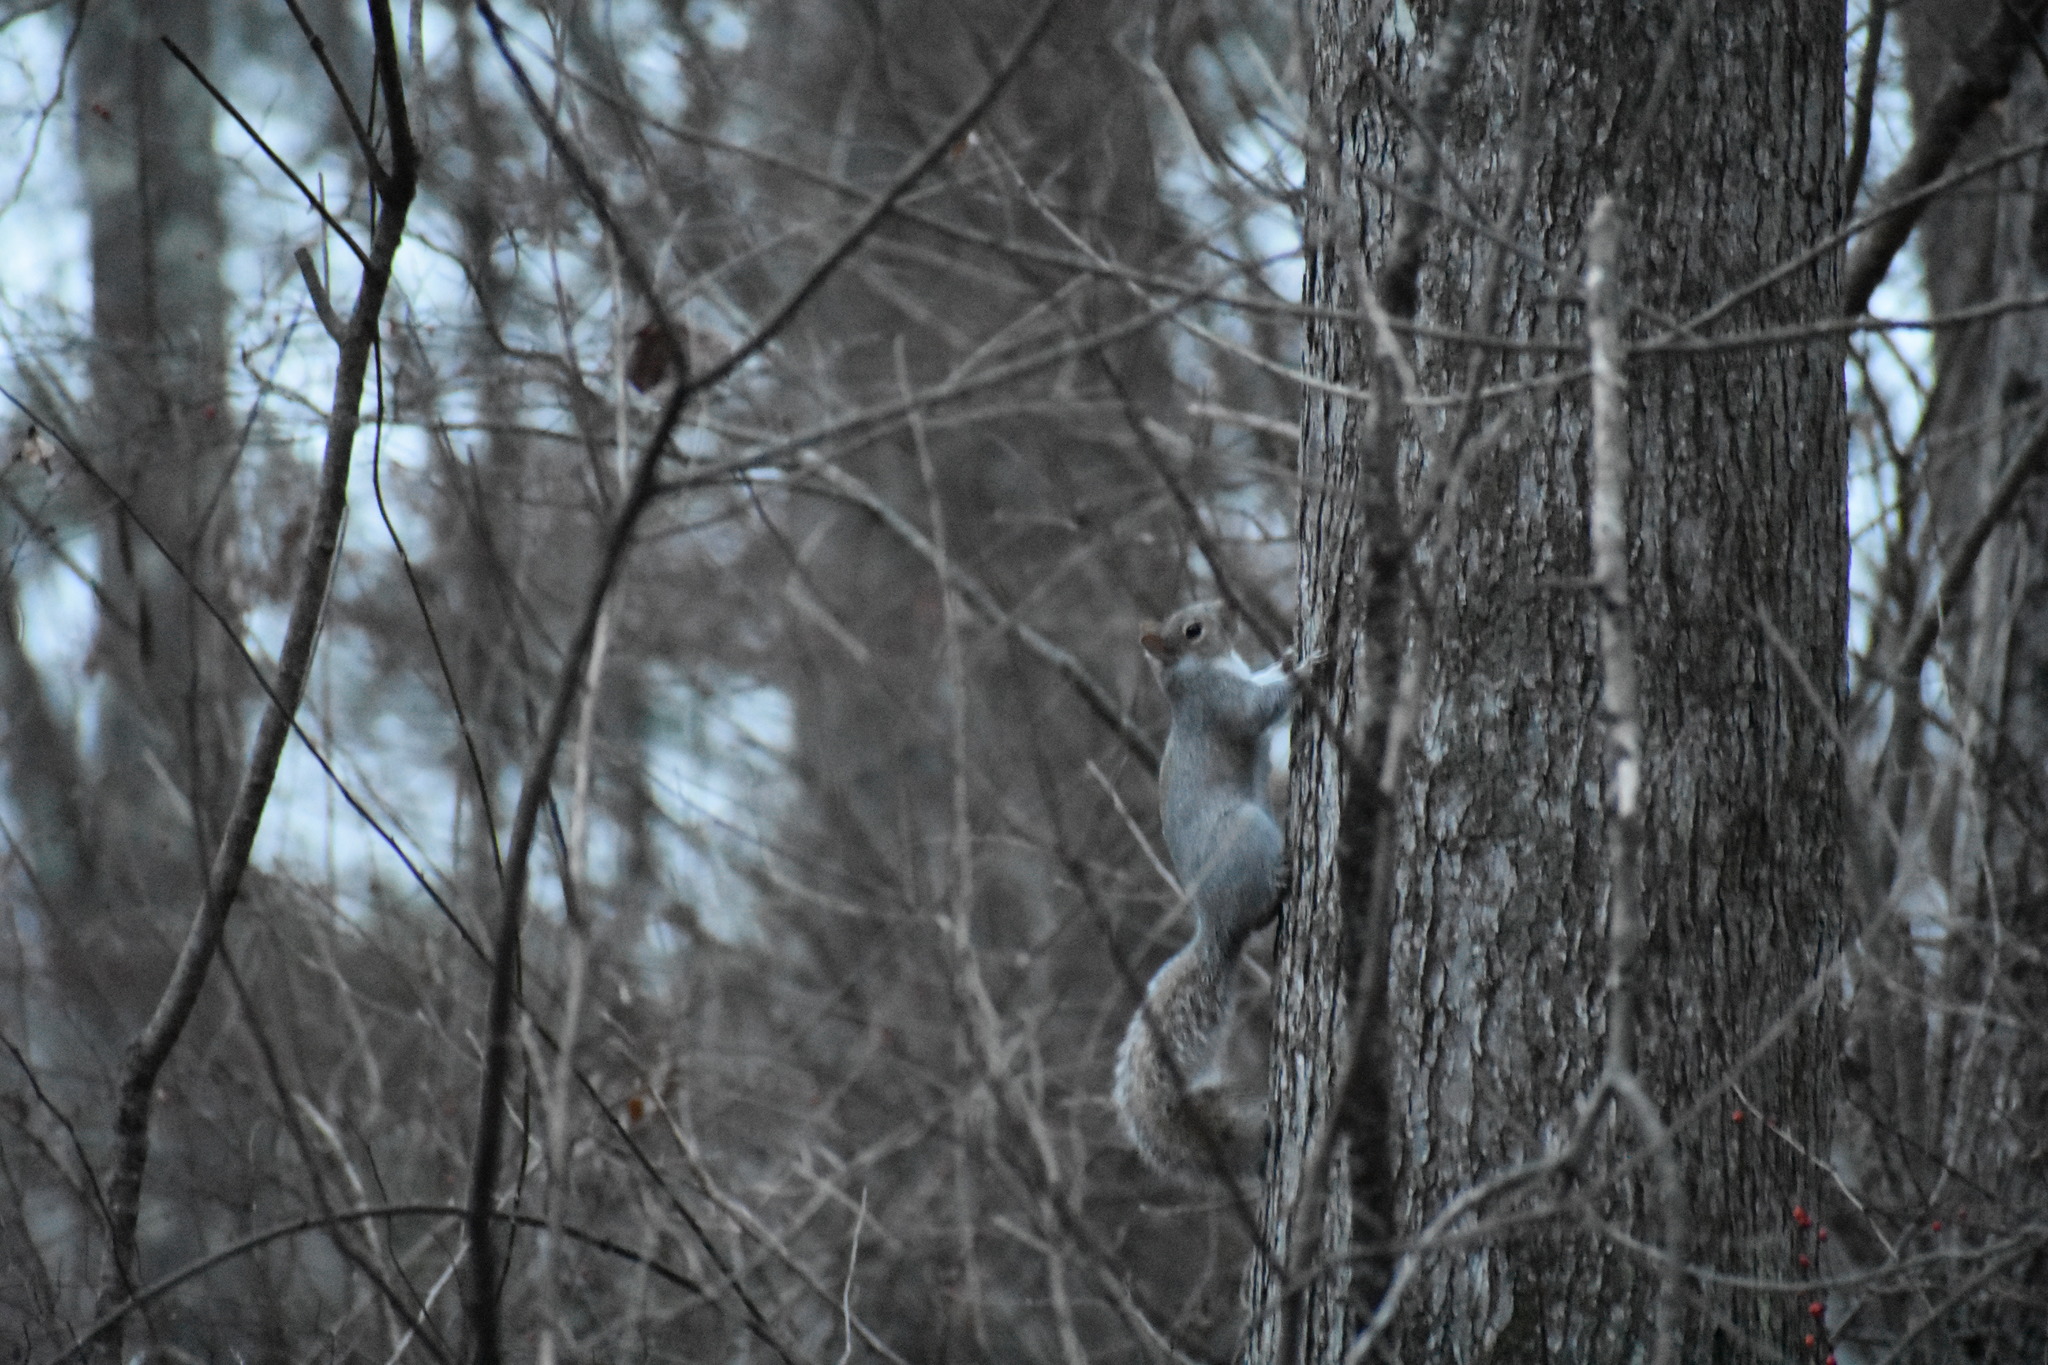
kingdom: Animalia
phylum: Chordata
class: Mammalia
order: Rodentia
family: Sciuridae
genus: Sciurus
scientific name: Sciurus carolinensis
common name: Eastern gray squirrel
